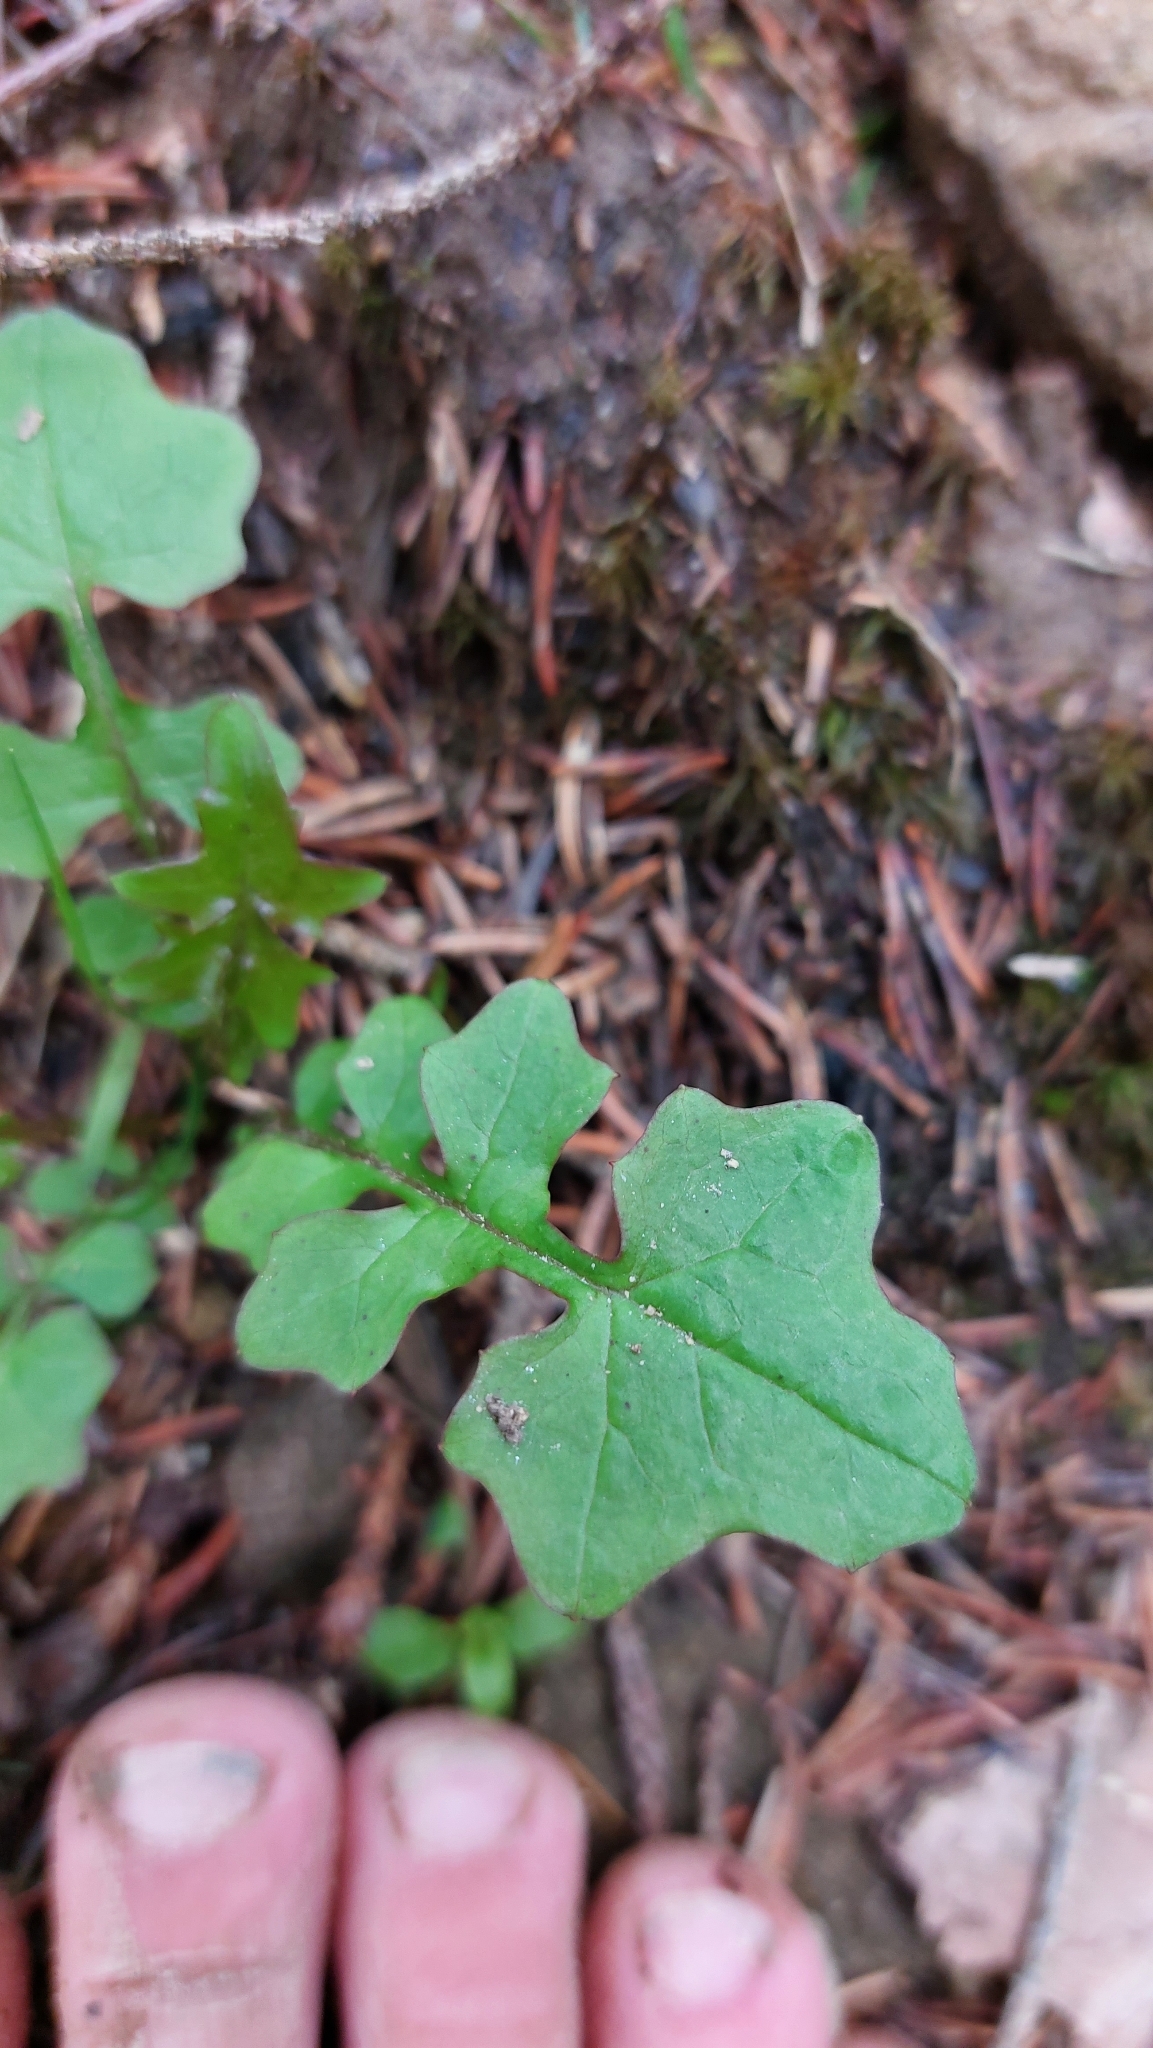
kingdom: Plantae
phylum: Tracheophyta
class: Magnoliopsida
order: Asterales
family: Asteraceae
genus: Mycelis
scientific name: Mycelis muralis
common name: Wall lettuce
